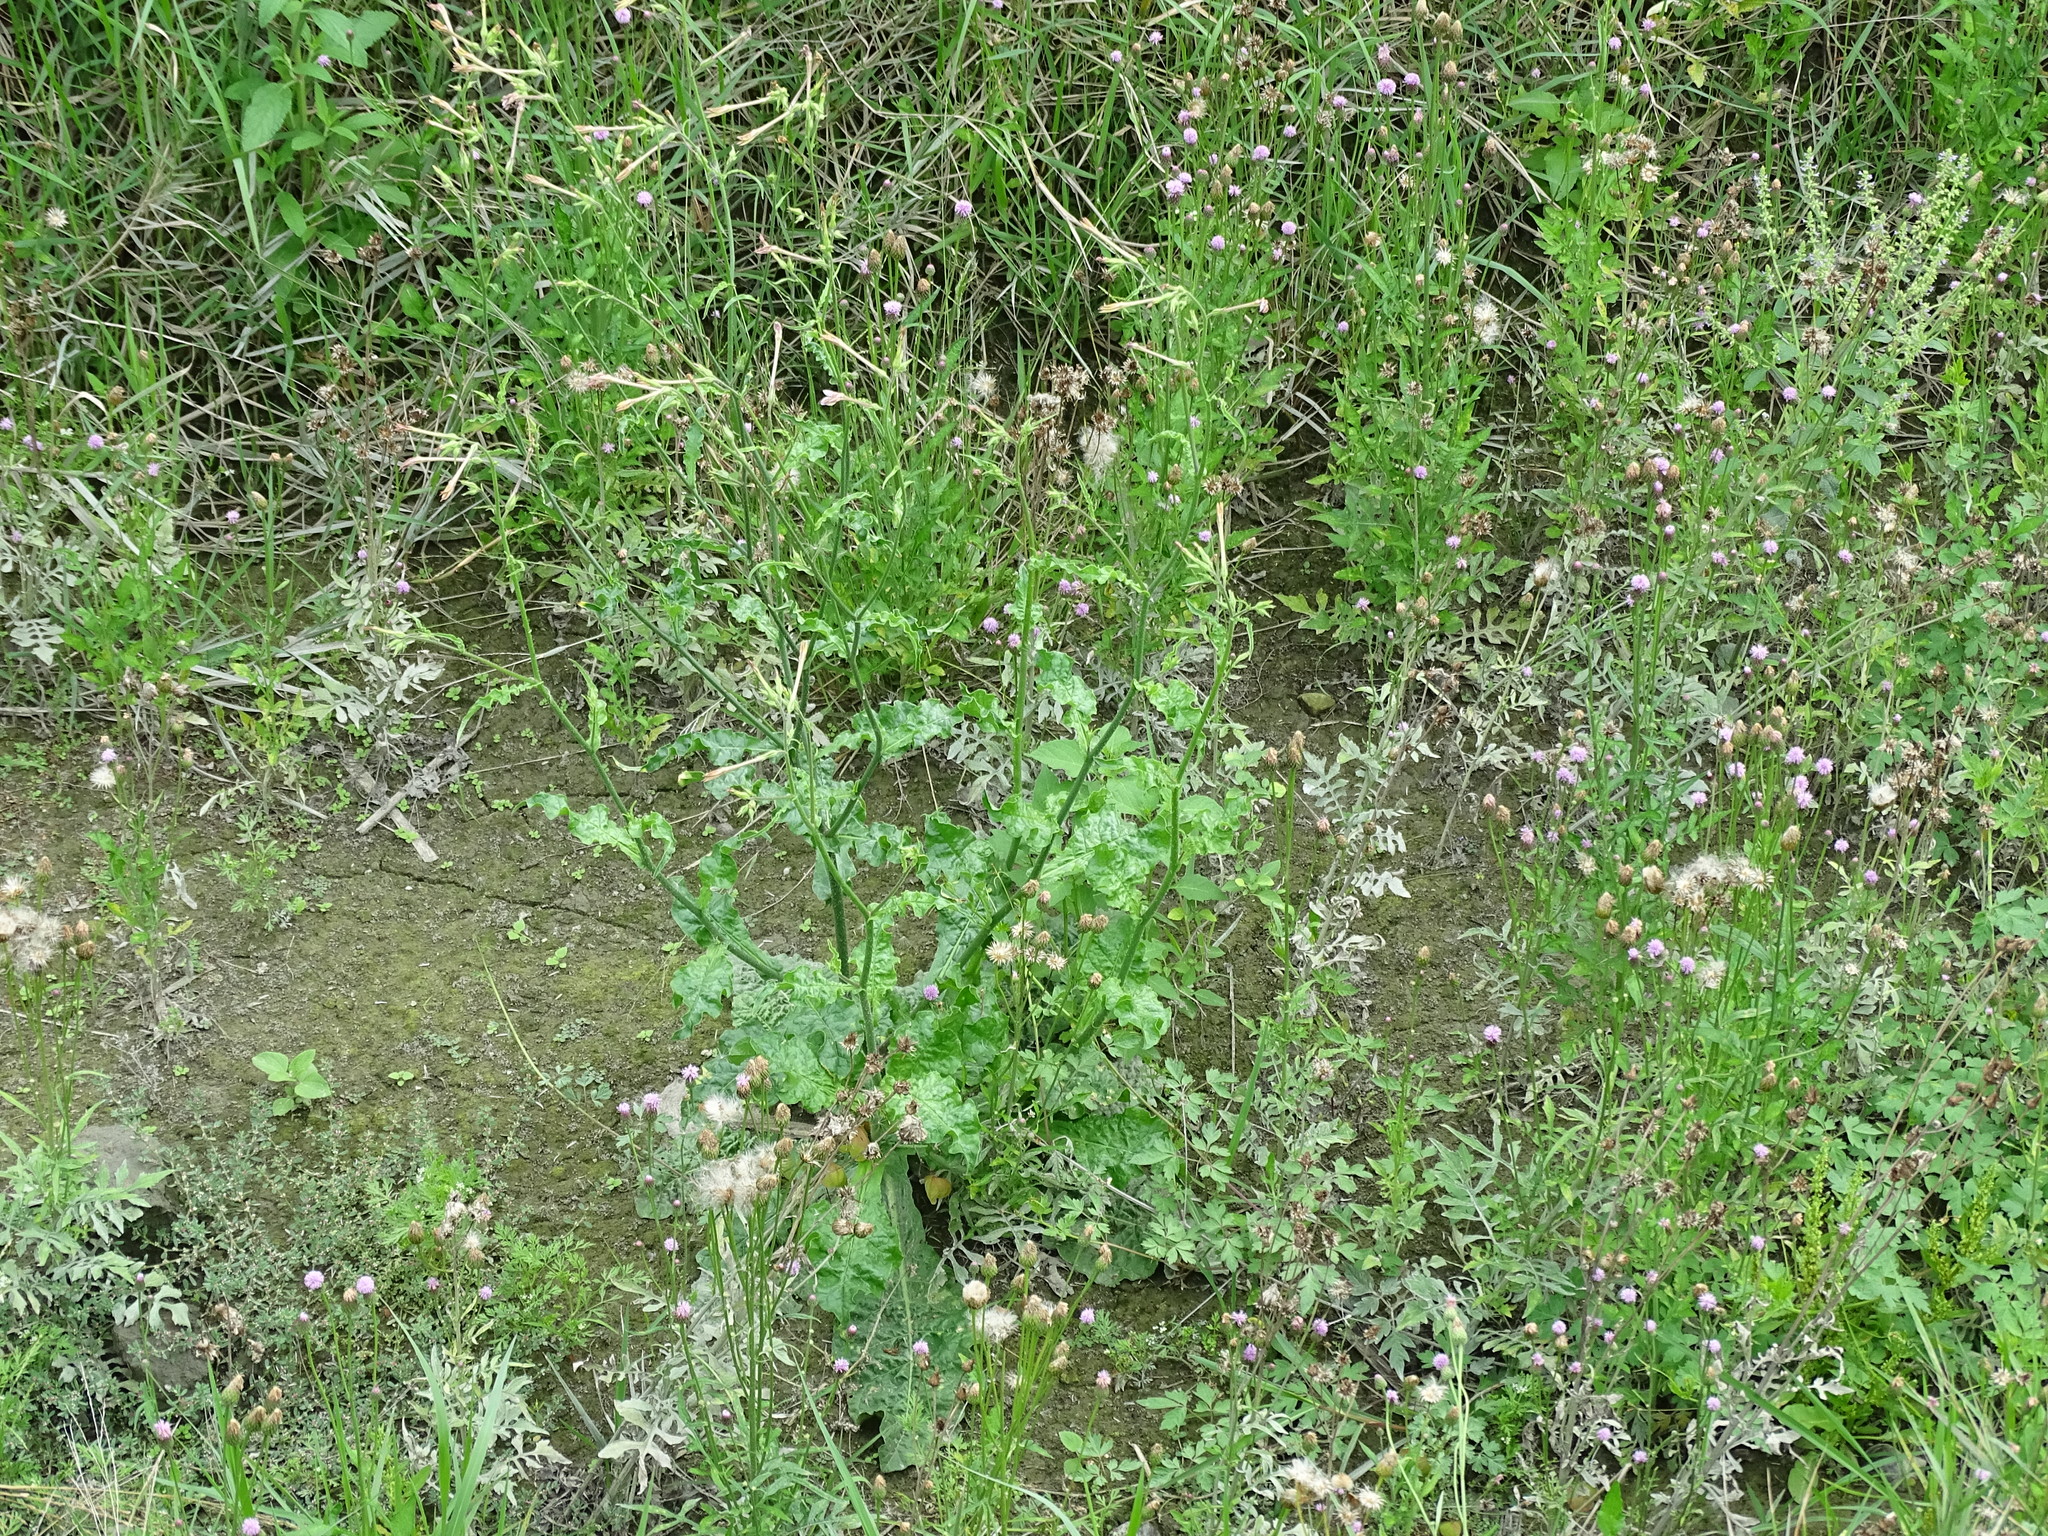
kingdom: Plantae
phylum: Tracheophyta
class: Magnoliopsida
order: Solanales
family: Solanaceae
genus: Nicotiana
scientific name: Nicotiana plumbaginifolia
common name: Tex-mex tobacco
